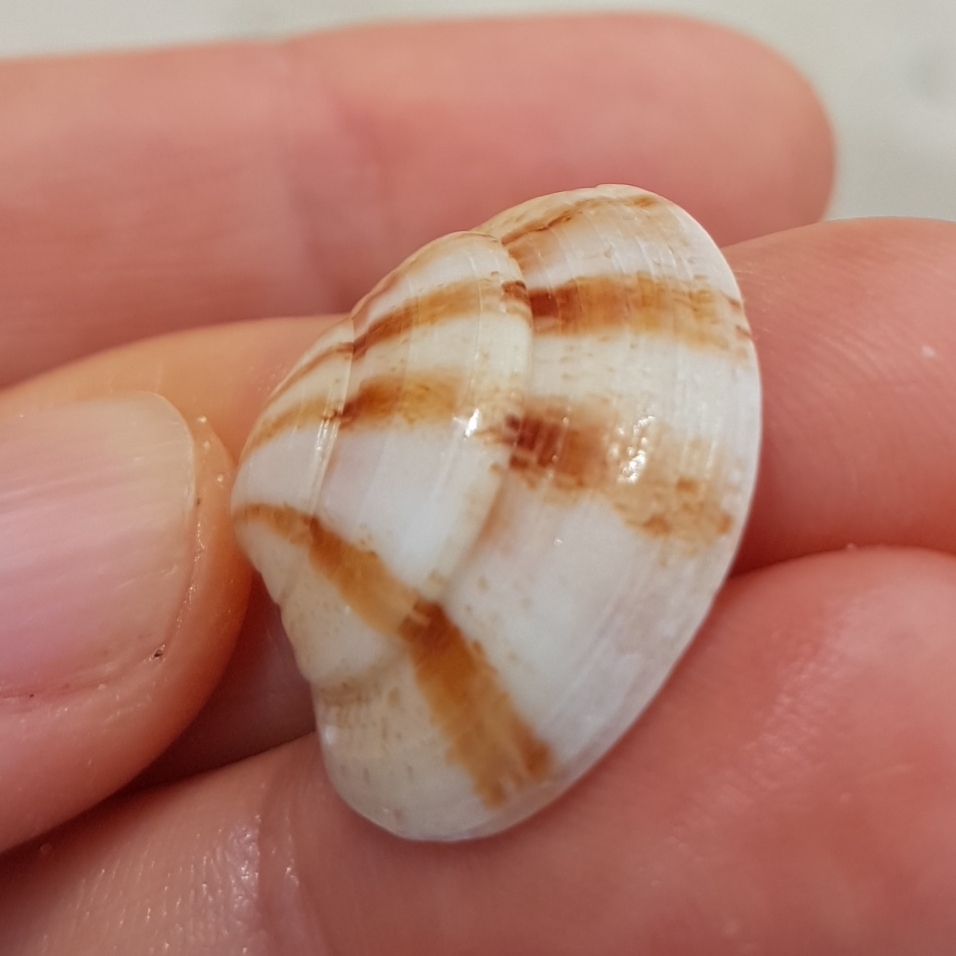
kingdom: Animalia
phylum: Mollusca
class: Bivalvia
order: Venerida
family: Veneridae
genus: Clausinella
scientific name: Clausinella fasciata
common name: Banded venus
